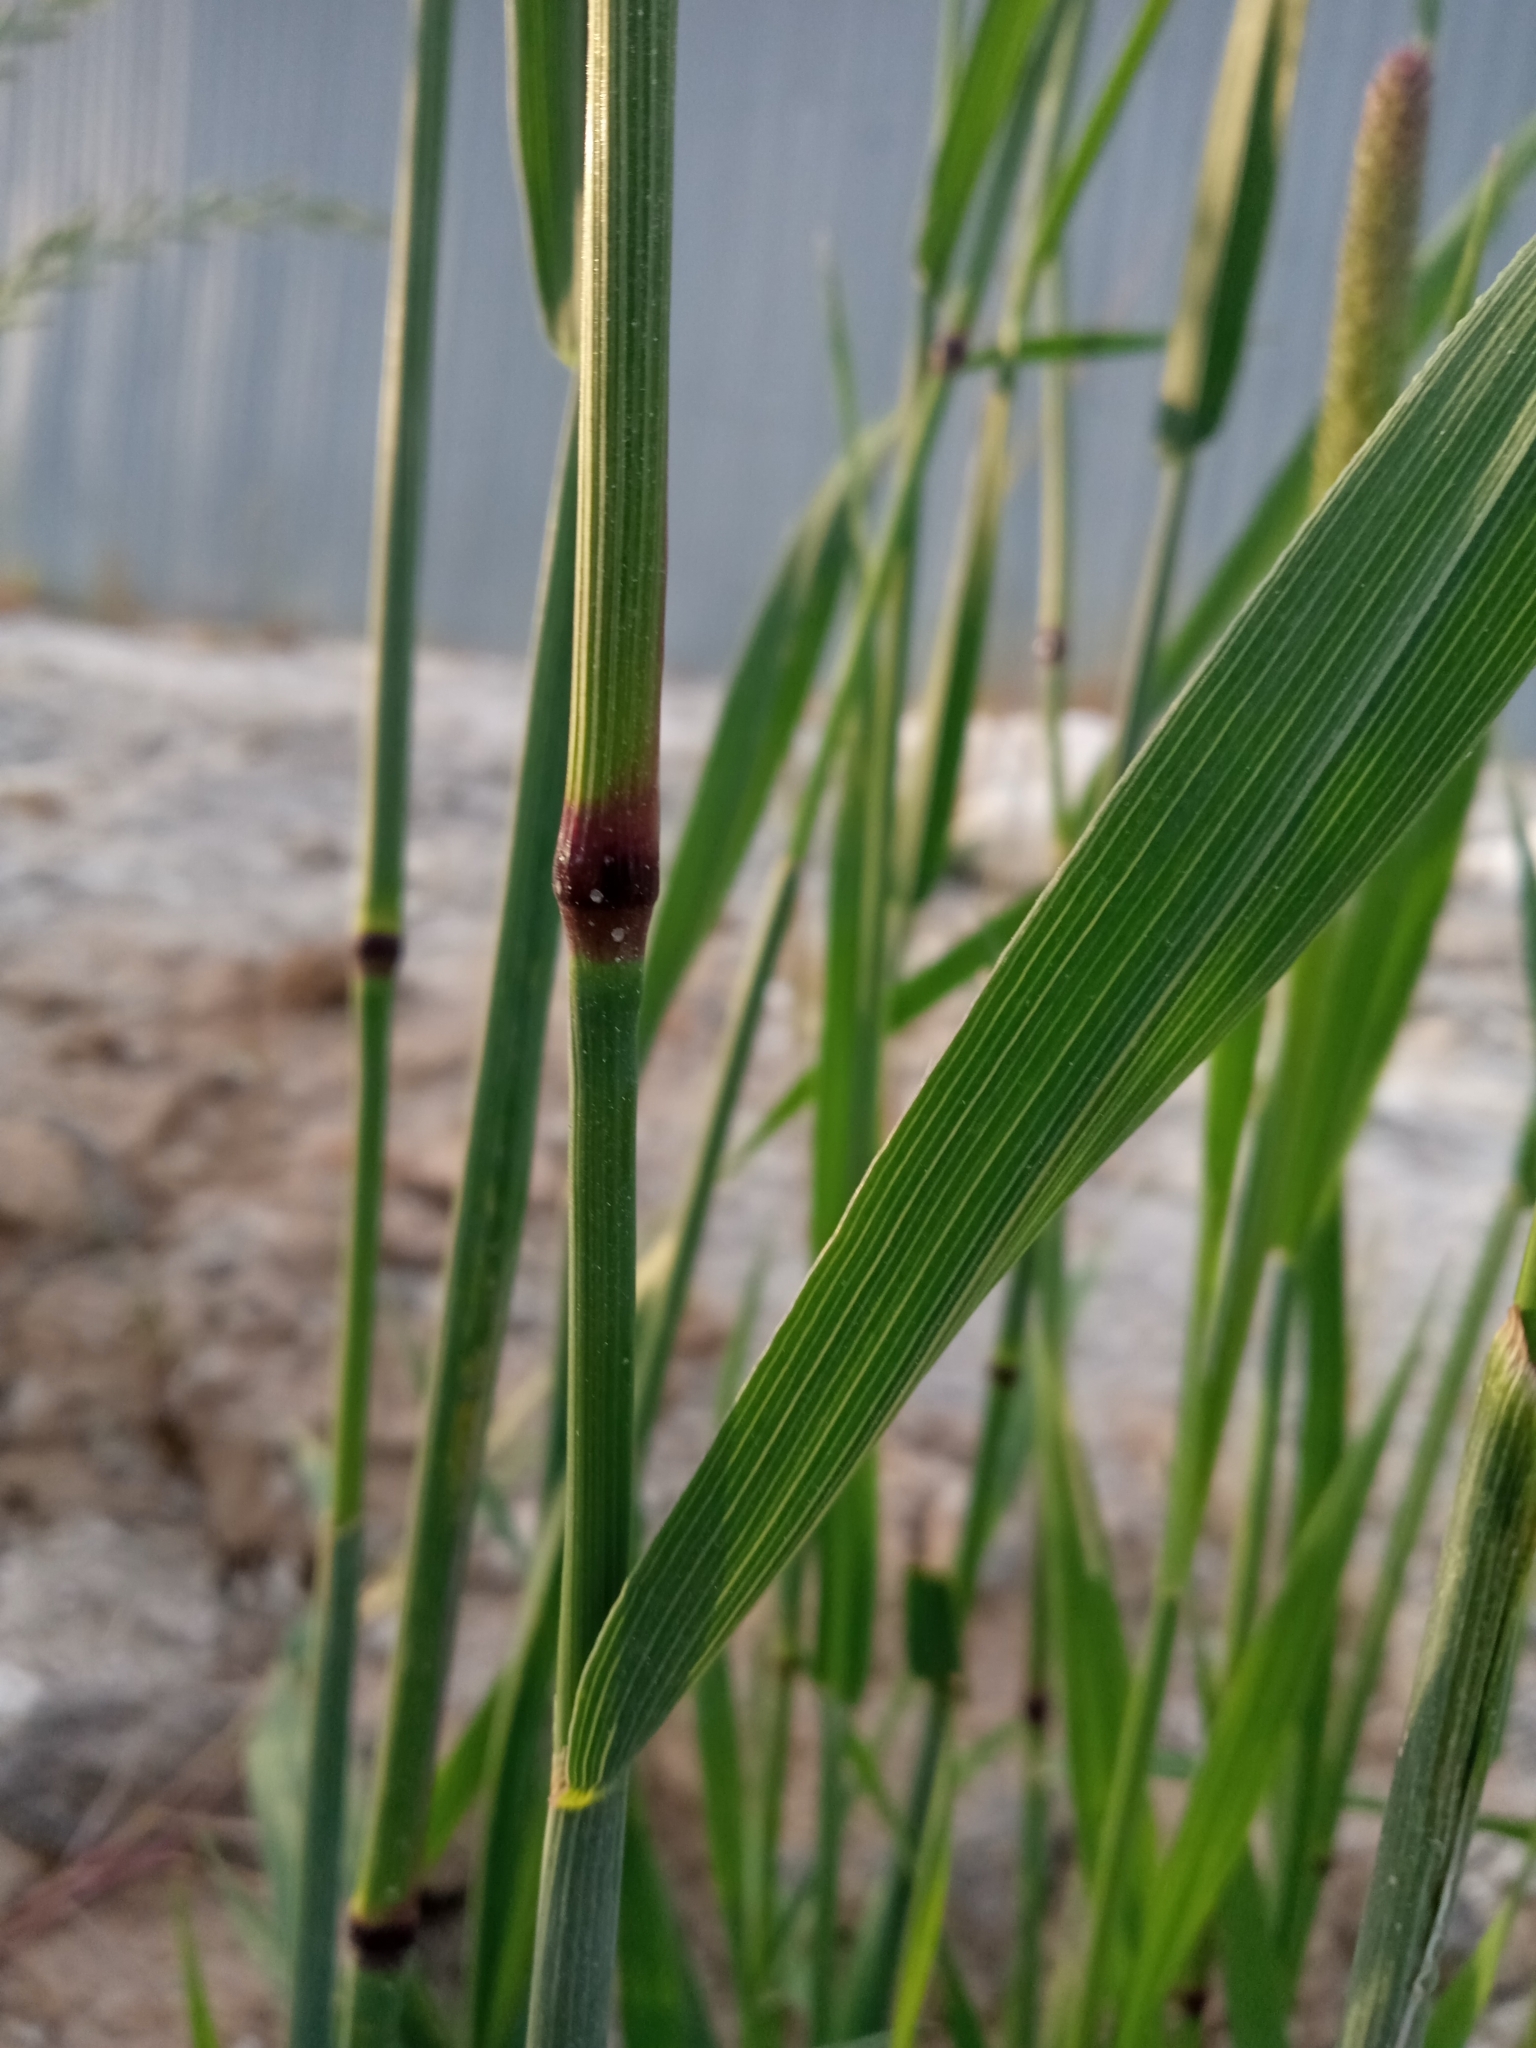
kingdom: Plantae
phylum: Tracheophyta
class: Liliopsida
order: Poales
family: Poaceae
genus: Phleum
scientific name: Phleum pratense
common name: Timothy grass
